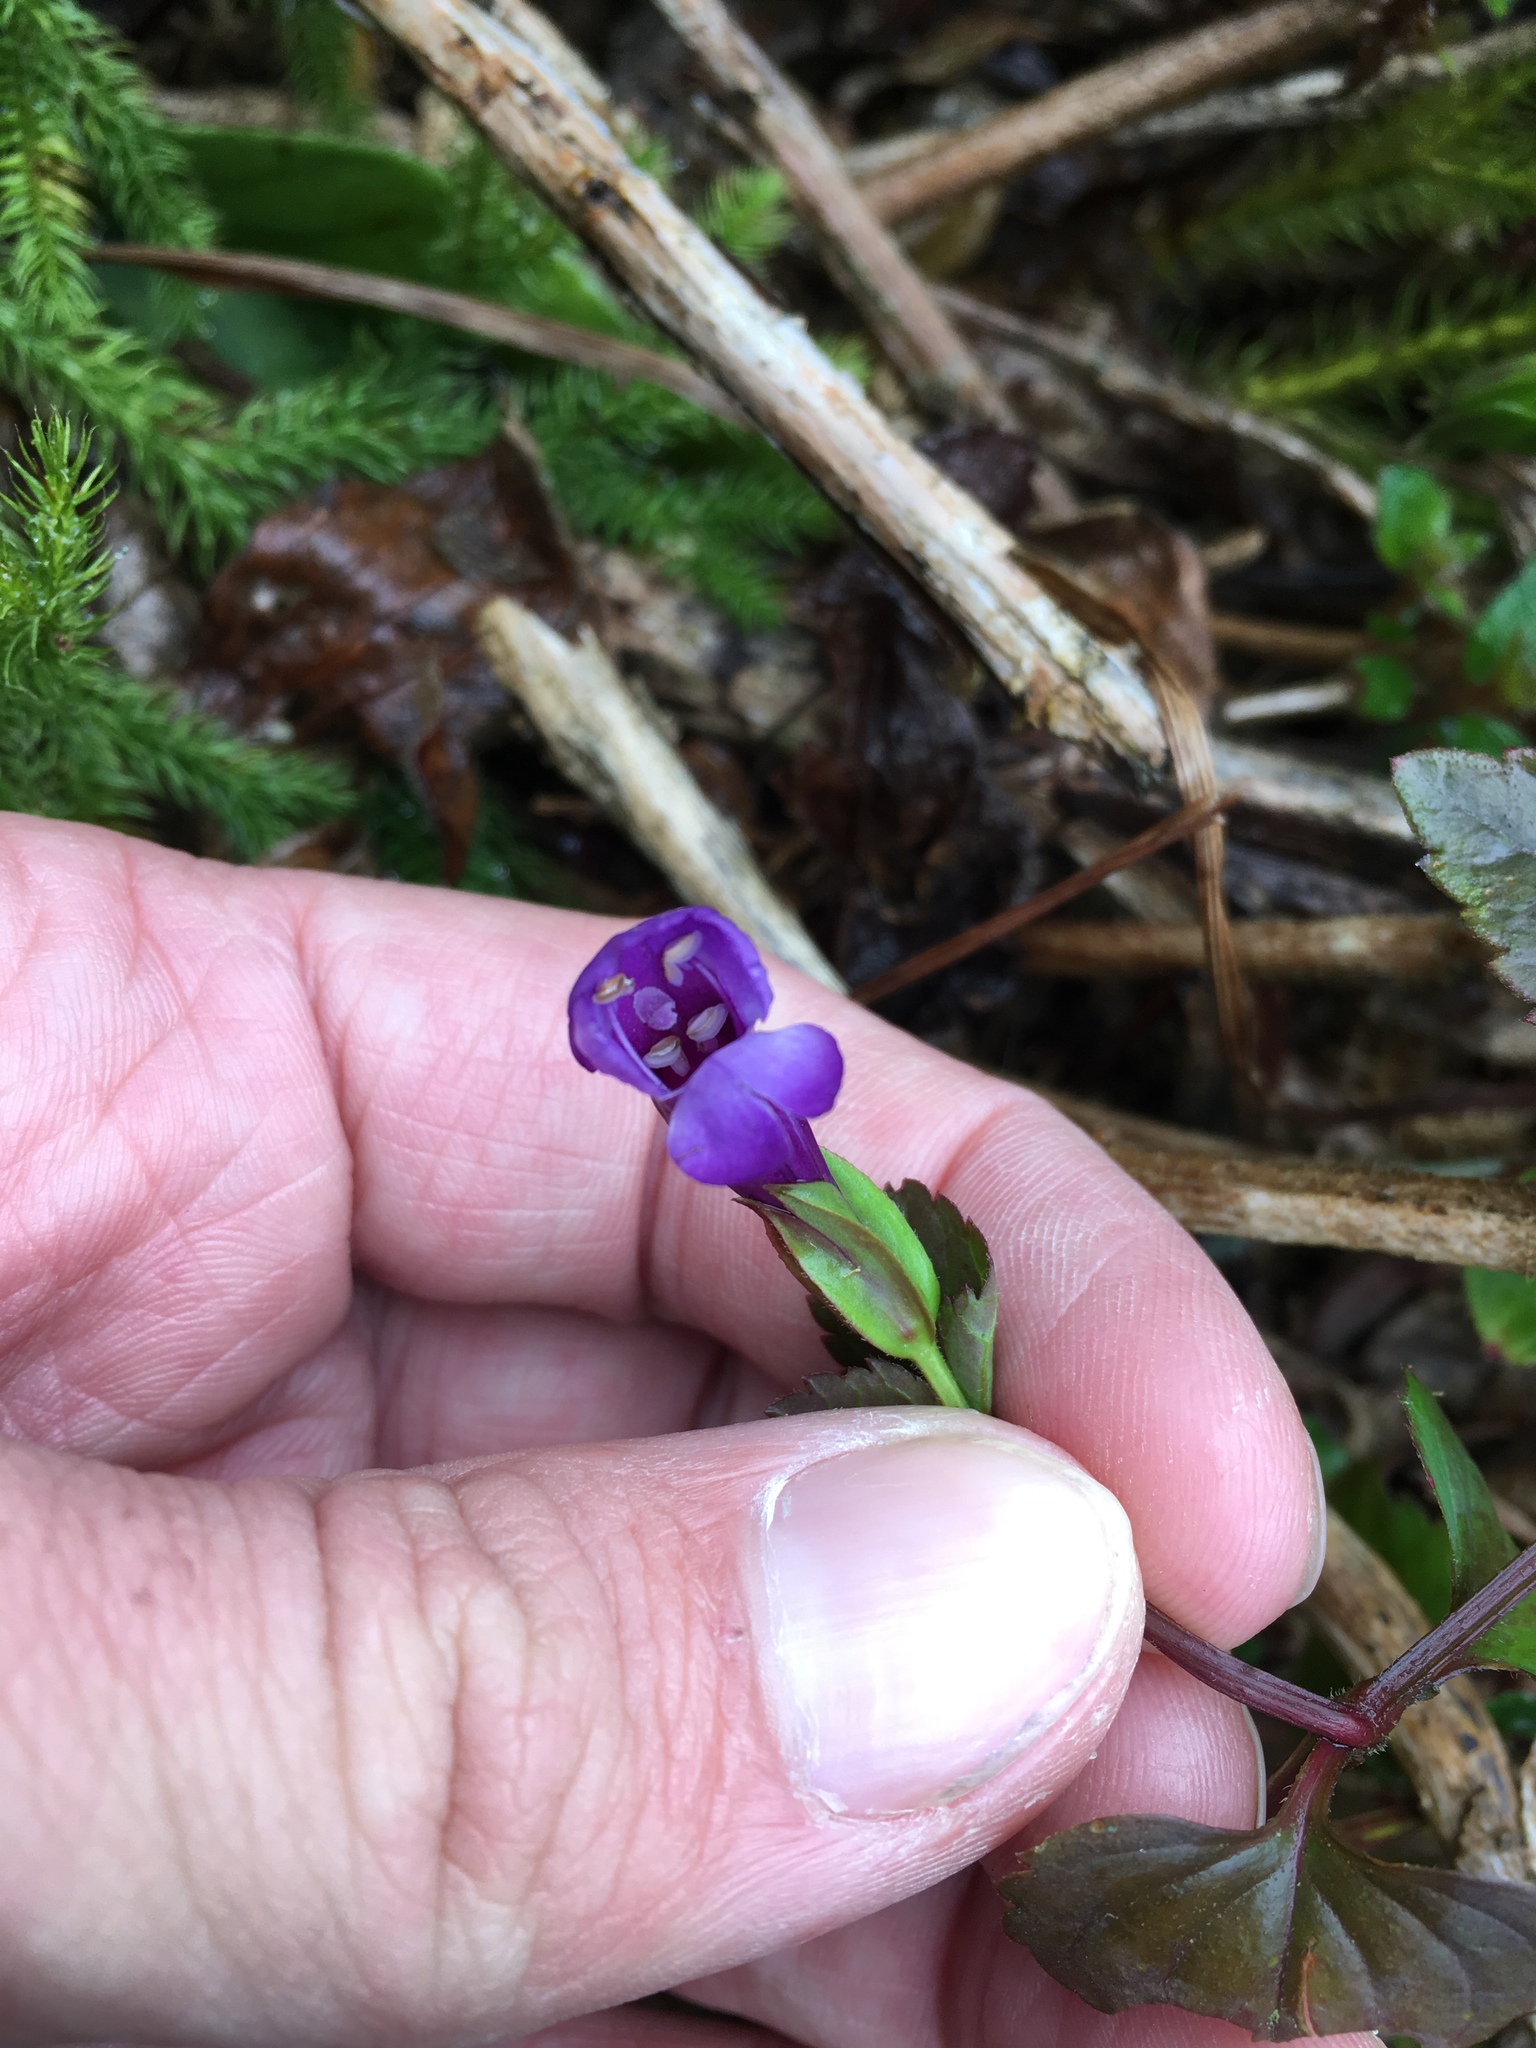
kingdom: Plantae
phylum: Tracheophyta
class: Magnoliopsida
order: Lamiales
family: Linderniaceae
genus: Torenia
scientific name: Torenia concolor
